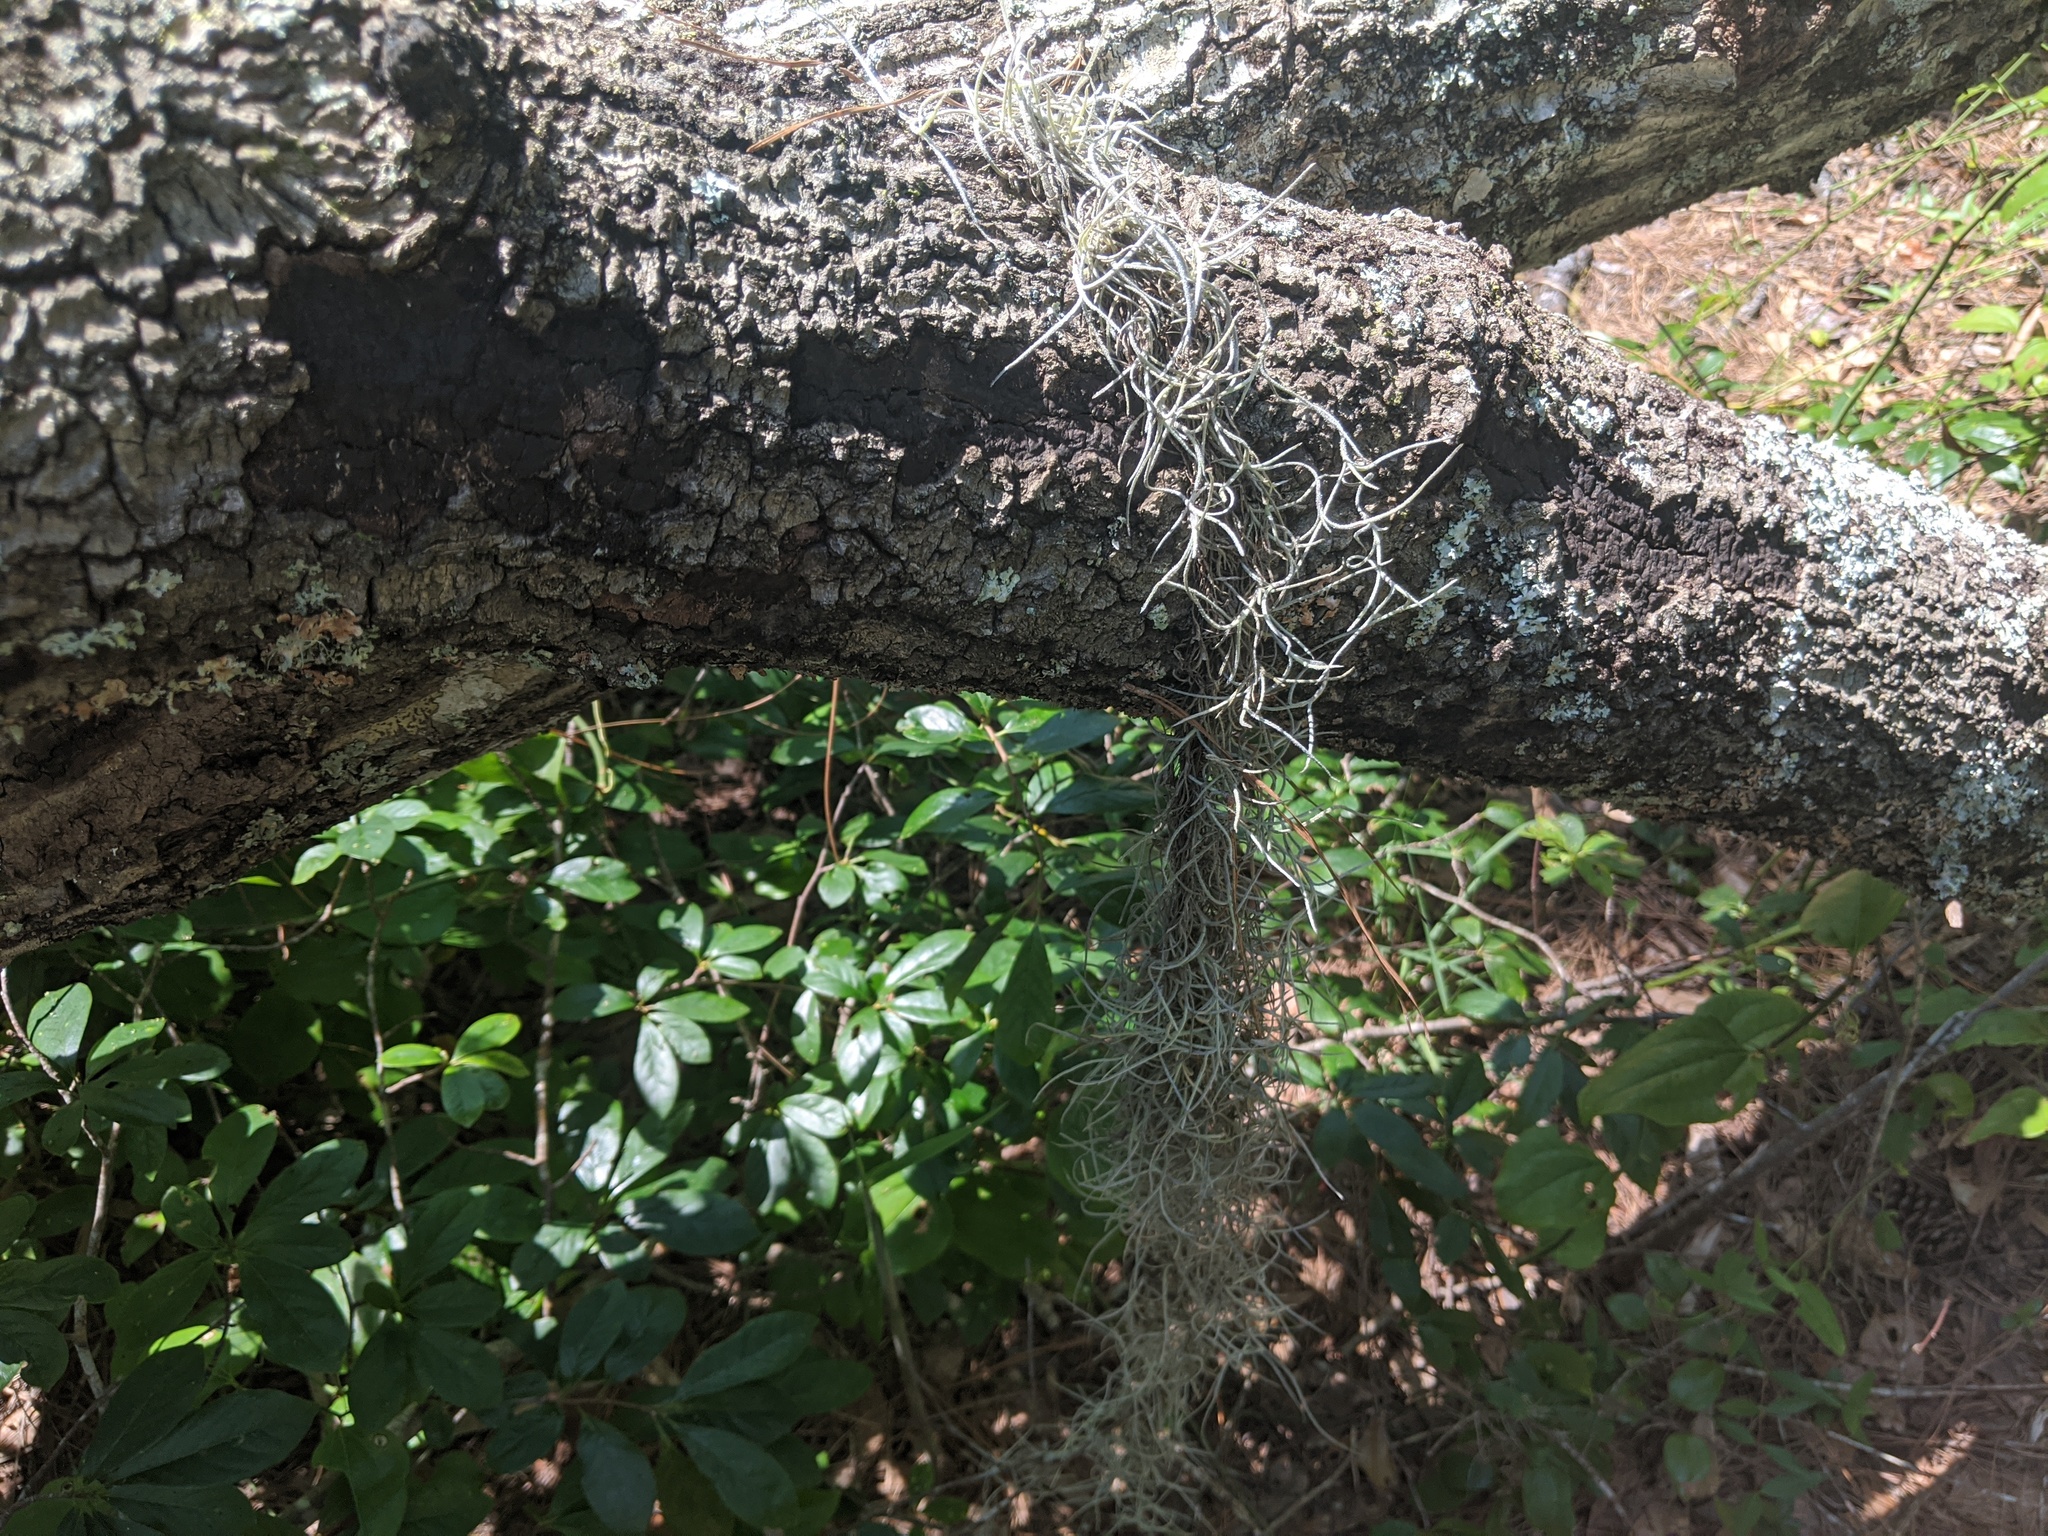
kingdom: Plantae
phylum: Tracheophyta
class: Liliopsida
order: Poales
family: Bromeliaceae
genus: Tillandsia
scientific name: Tillandsia usneoides
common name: Spanish moss
